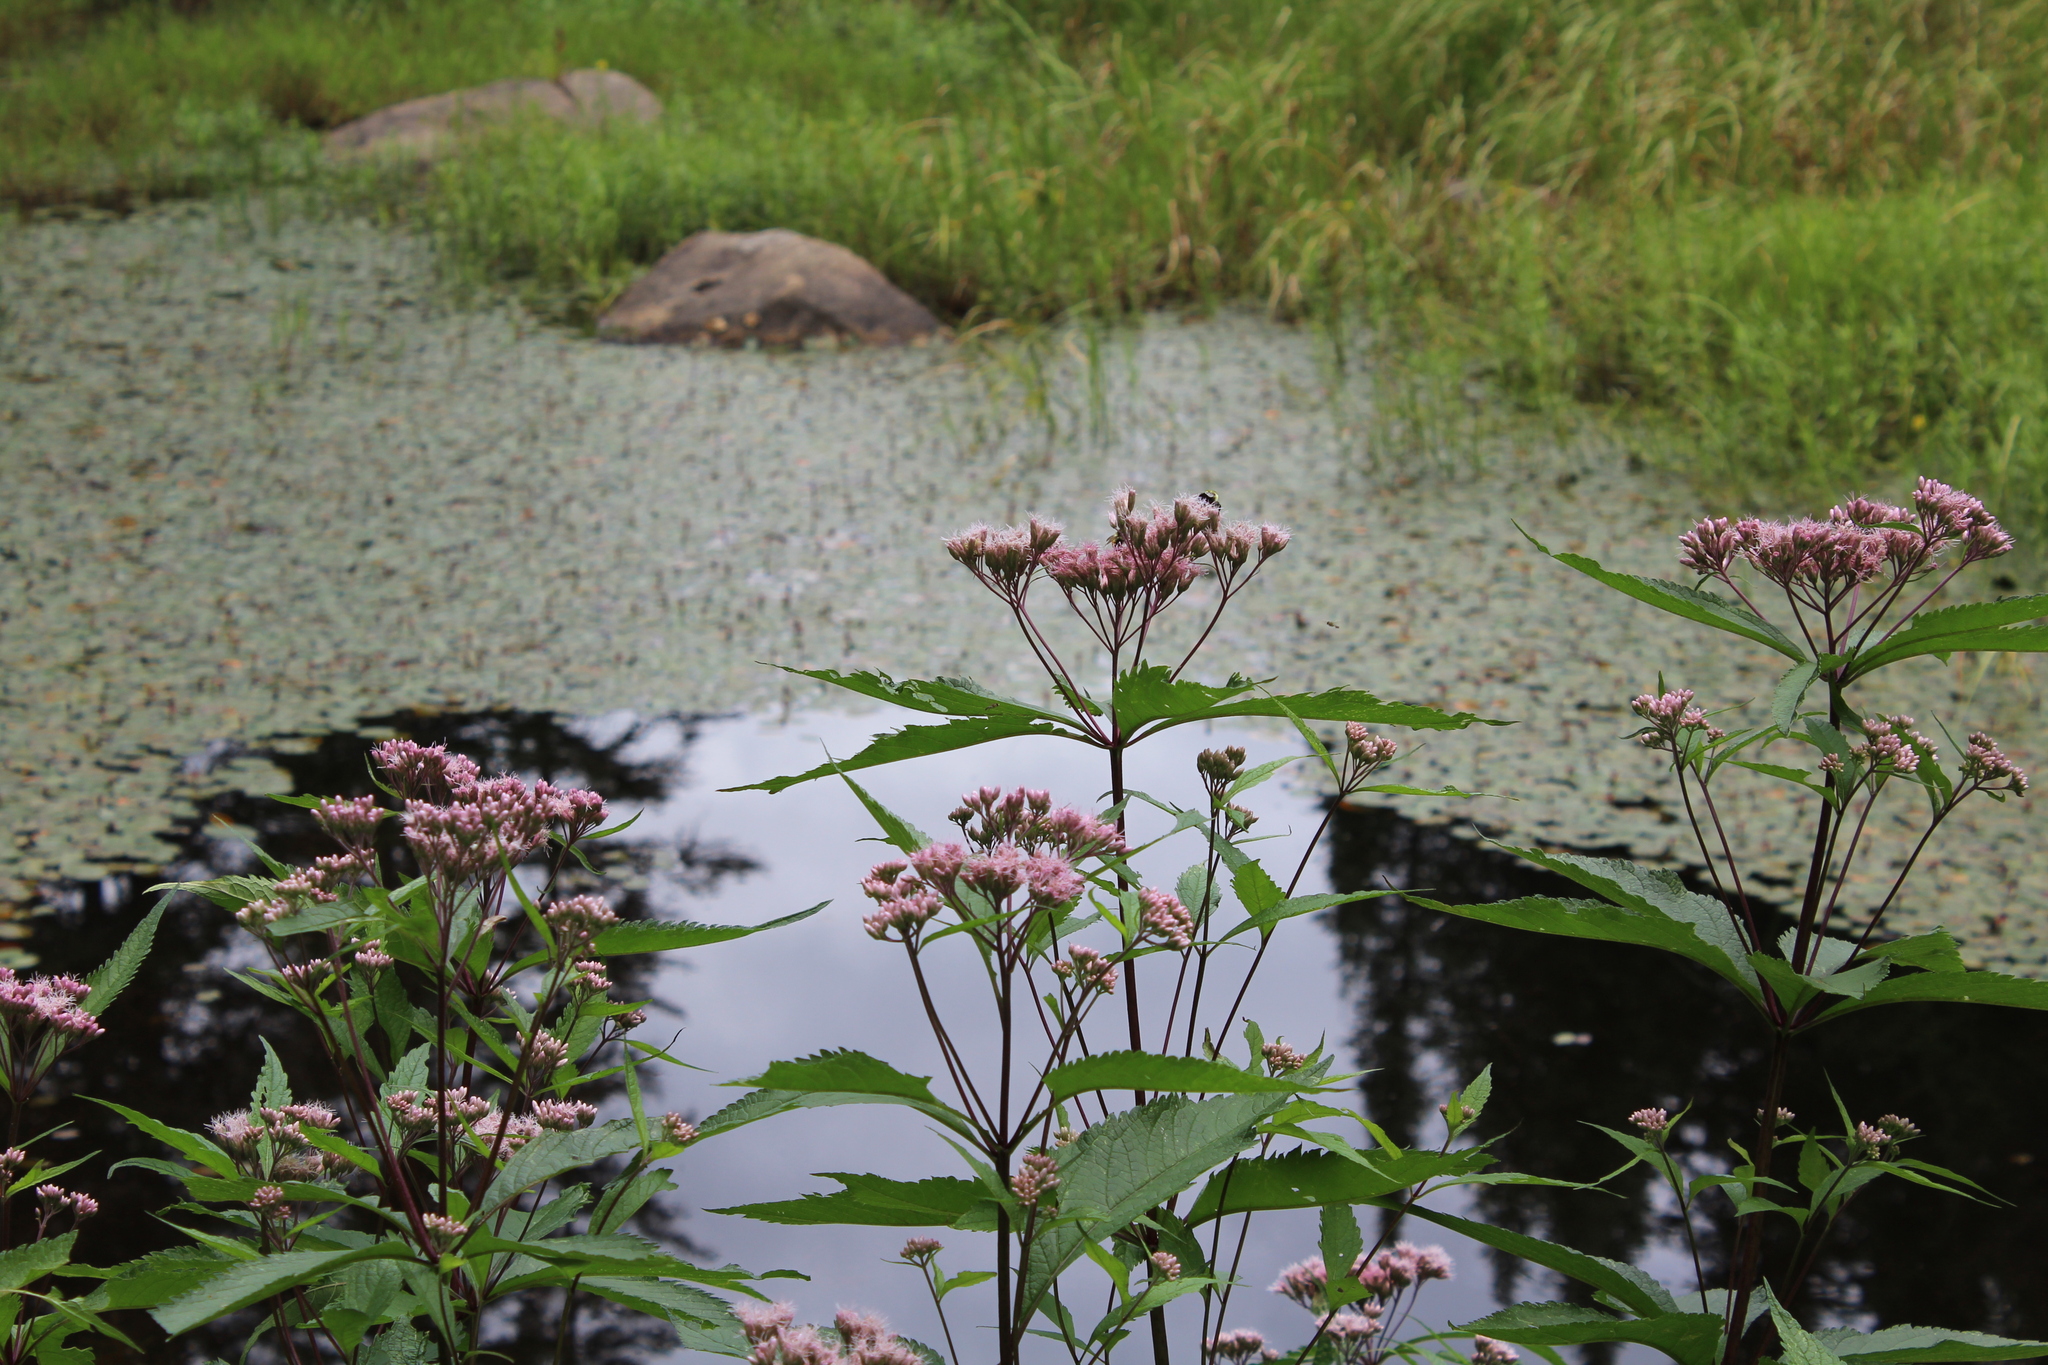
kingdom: Plantae
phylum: Tracheophyta
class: Magnoliopsida
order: Asterales
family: Asteraceae
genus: Eutrochium
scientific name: Eutrochium maculatum
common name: Spotted joe pye weed
